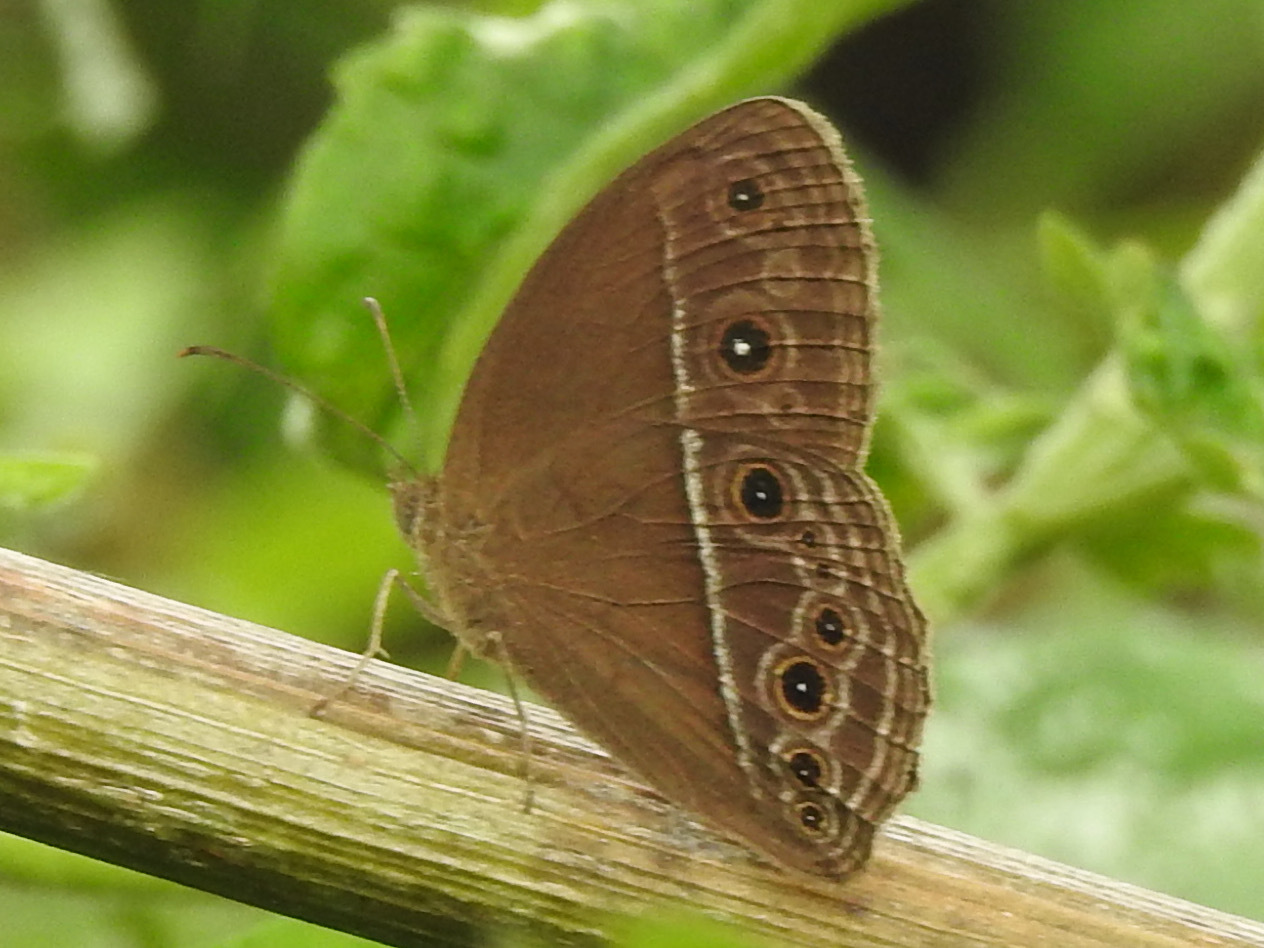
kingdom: Animalia
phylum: Arthropoda
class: Insecta
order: Lepidoptera
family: Nymphalidae
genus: Mycalesis
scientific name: Mycalesis perseus
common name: Dingy bushbrown
